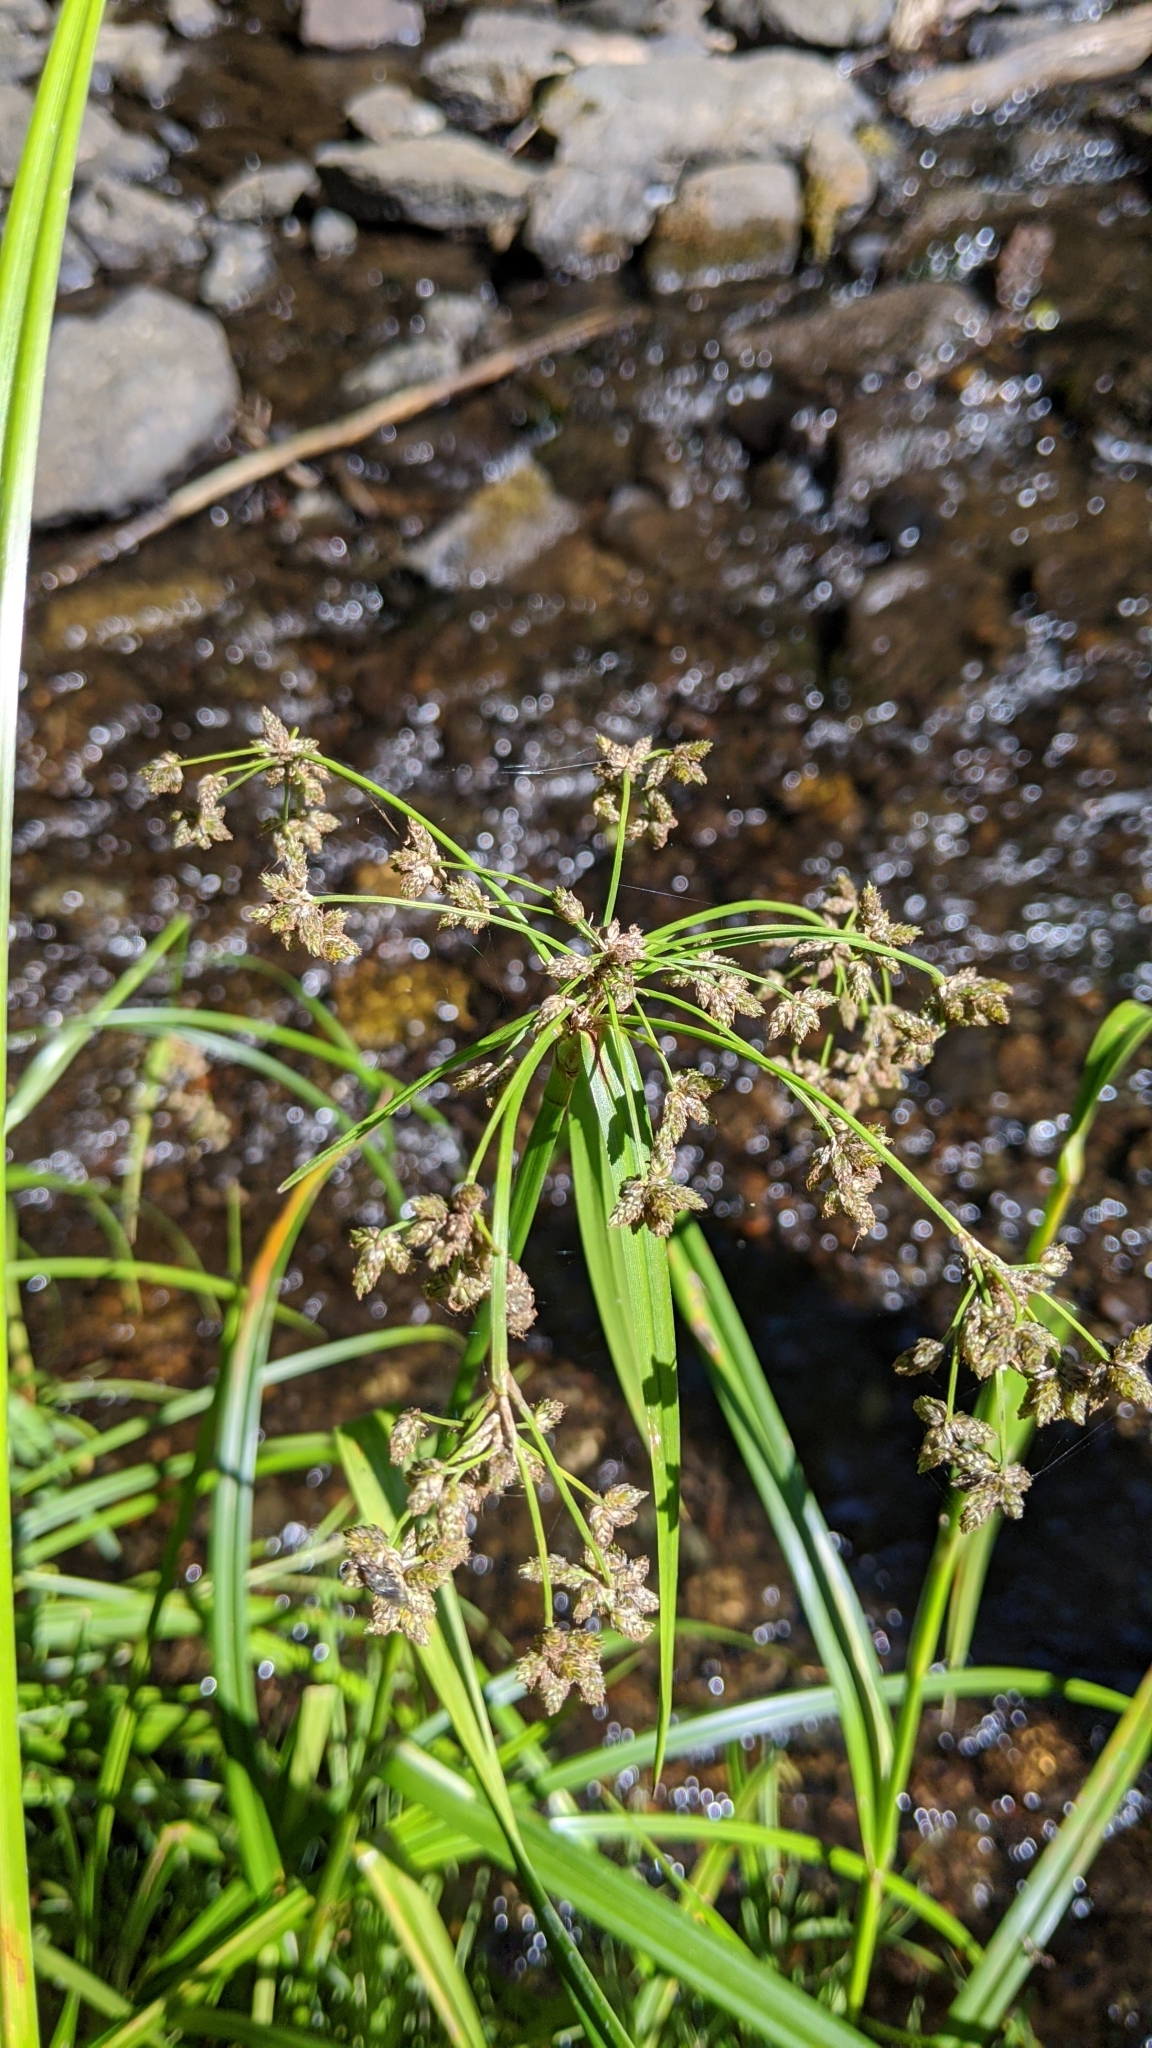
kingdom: Plantae
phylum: Tracheophyta
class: Liliopsida
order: Poales
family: Cyperaceae
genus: Scirpus
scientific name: Scirpus microcarpus
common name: Panicled bulrush
